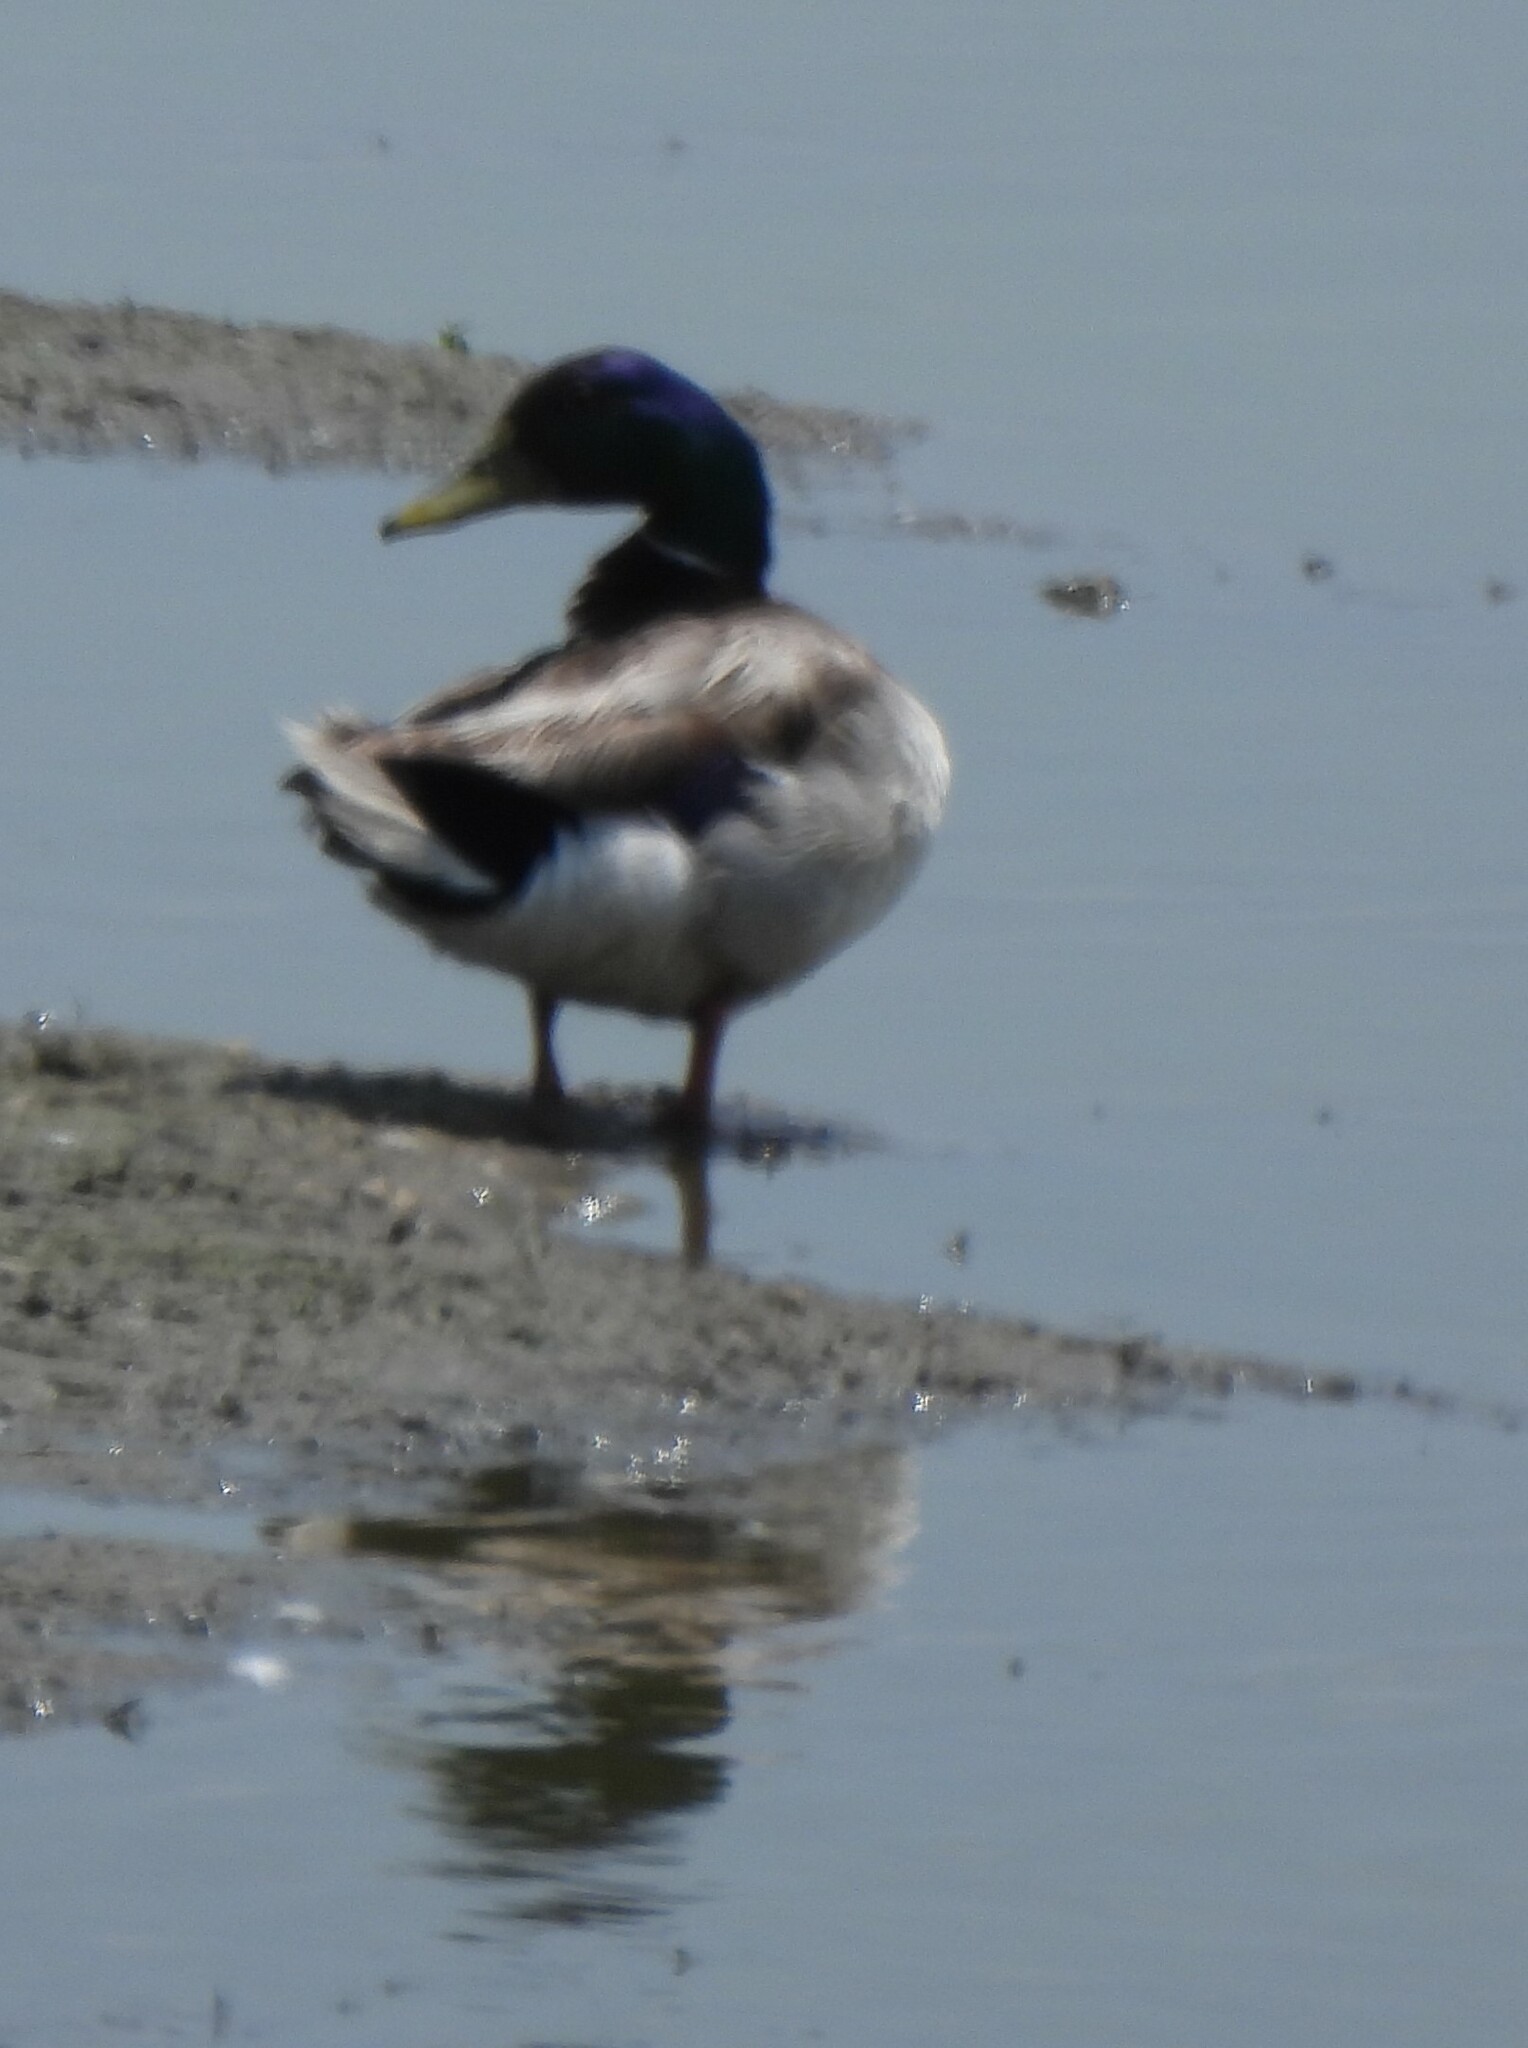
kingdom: Animalia
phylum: Chordata
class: Aves
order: Anseriformes
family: Anatidae
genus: Anas
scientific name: Anas platyrhynchos
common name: Mallard
